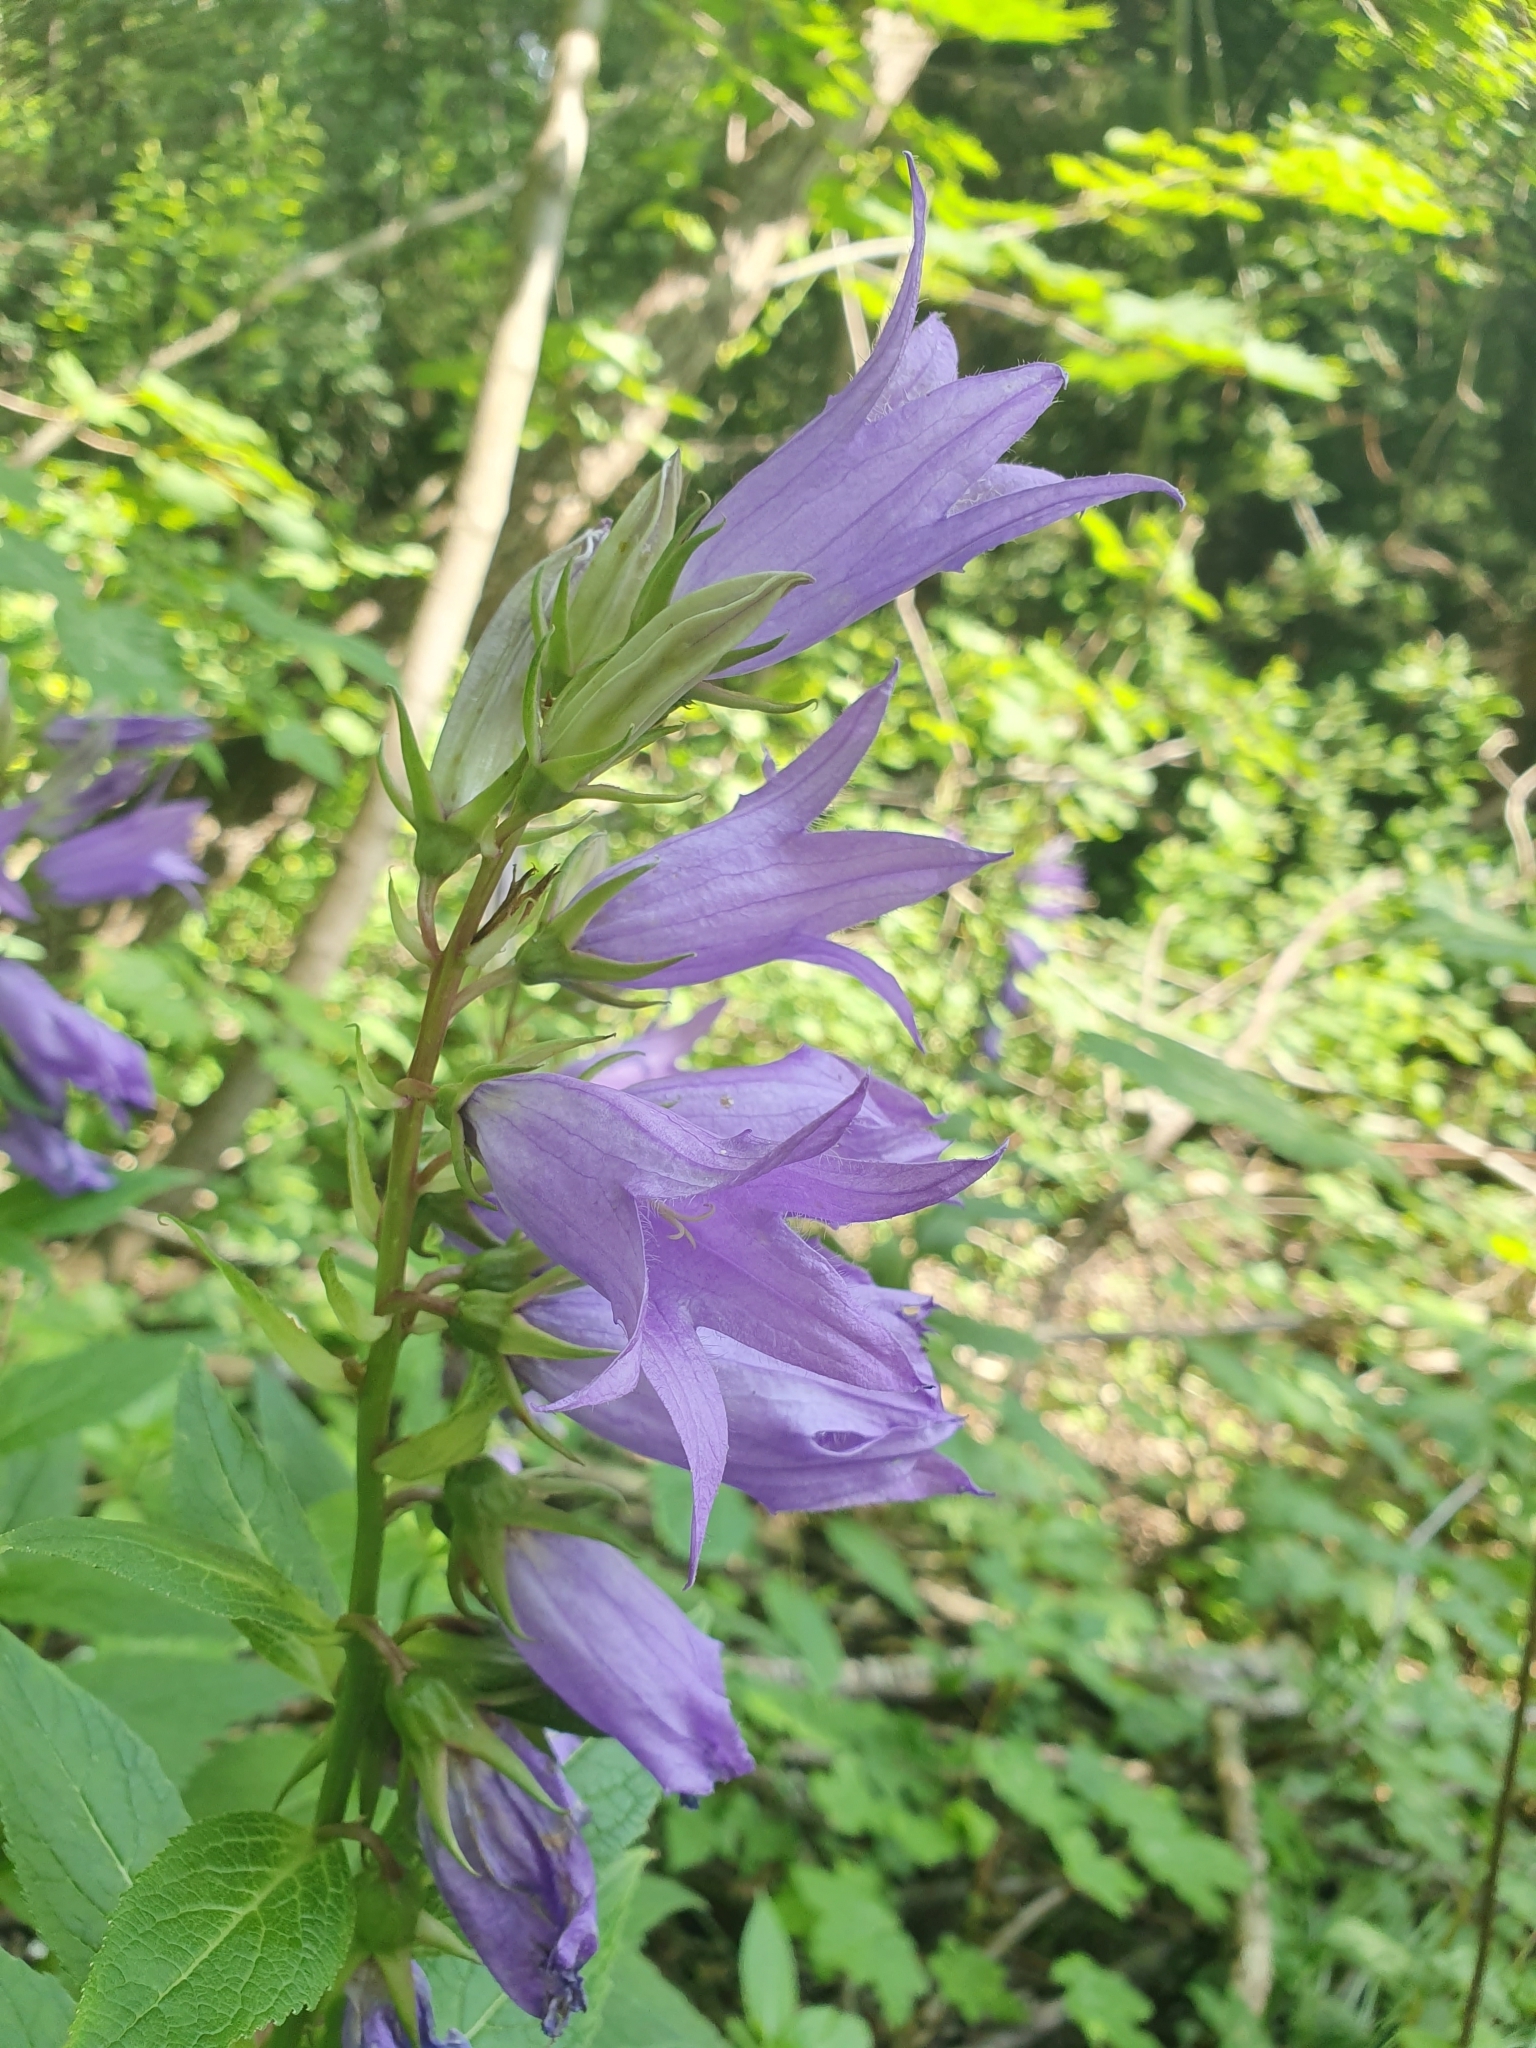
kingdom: Plantae
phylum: Tracheophyta
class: Magnoliopsida
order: Asterales
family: Campanulaceae
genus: Campanula
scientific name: Campanula latifolia
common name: Giant bellflower
